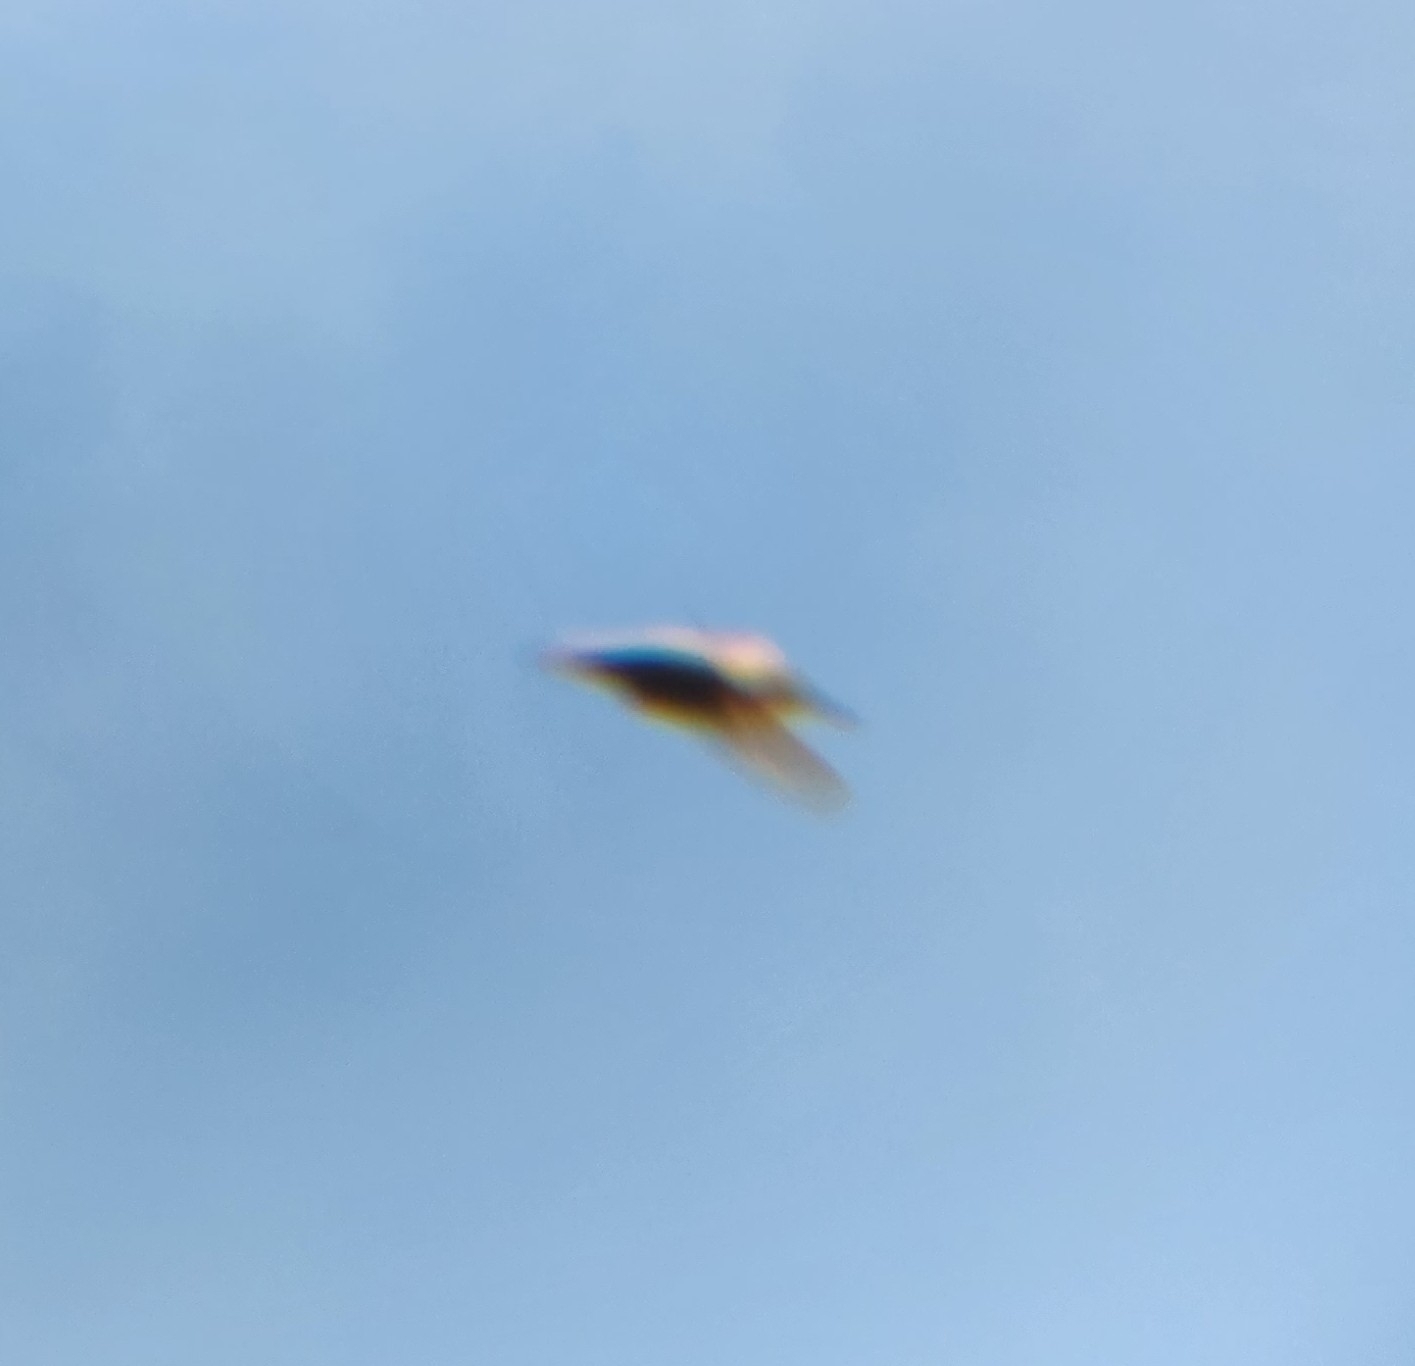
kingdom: Animalia
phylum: Chordata
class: Aves
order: Apodiformes
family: Trochilidae
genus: Selasphorus
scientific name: Selasphorus
